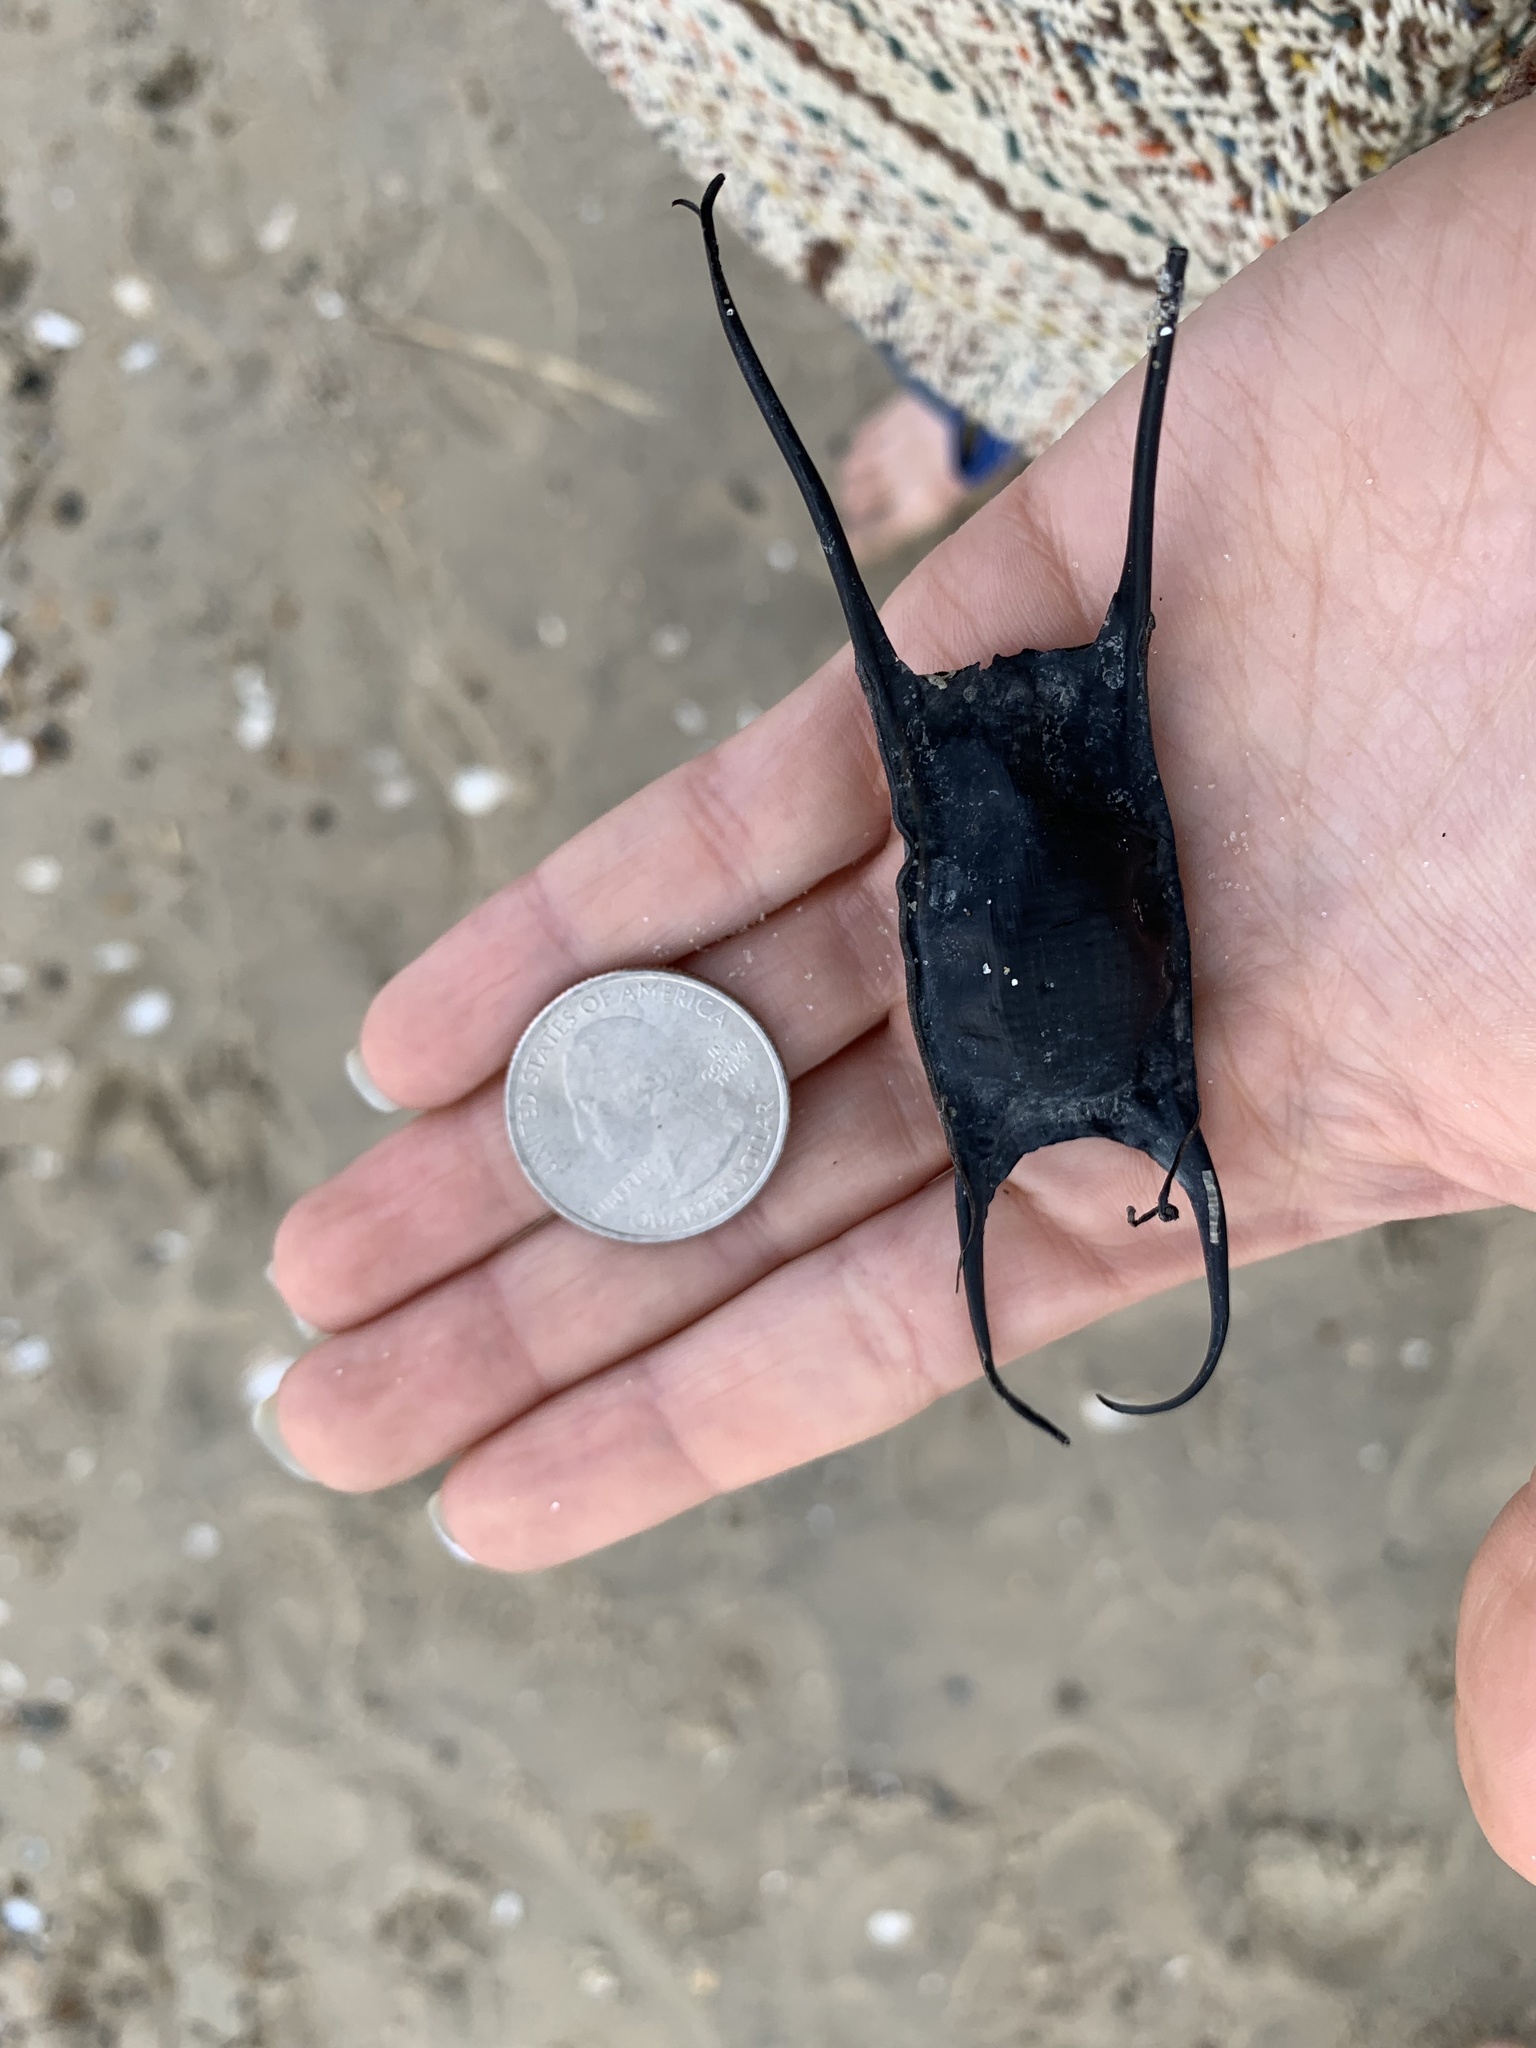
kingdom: Animalia
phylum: Chordata
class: Elasmobranchii
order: Rajiformes
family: Rajidae
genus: Leucoraja
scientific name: Leucoraja erinacea
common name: Little skate
